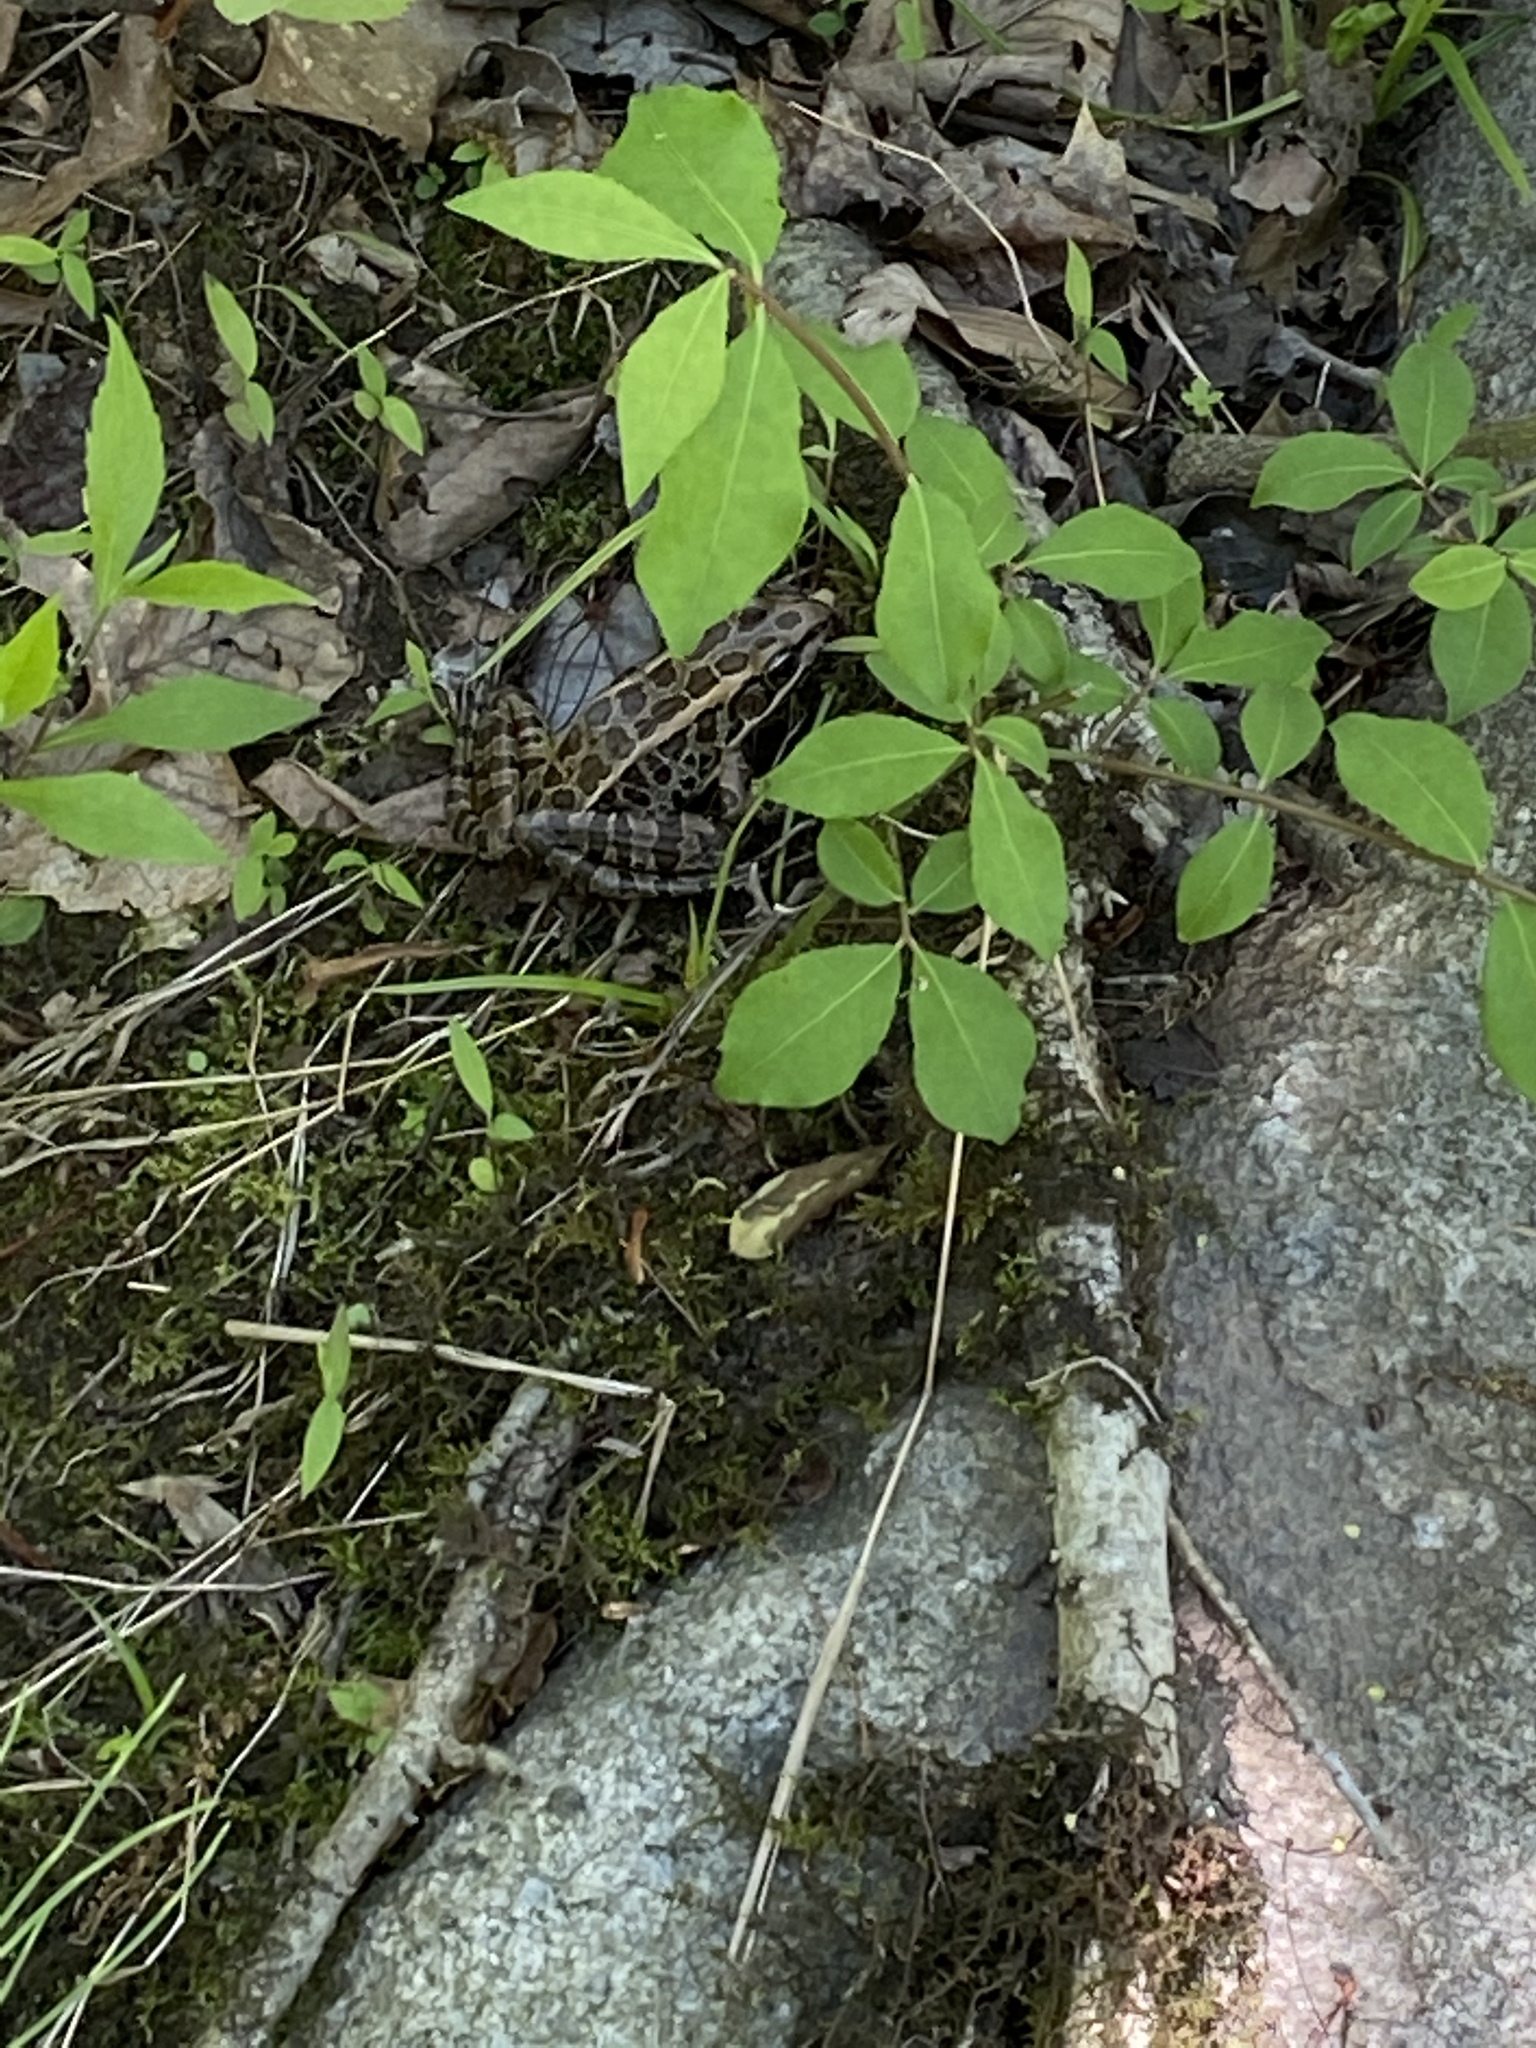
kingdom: Animalia
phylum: Chordata
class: Amphibia
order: Anura
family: Ranidae
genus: Lithobates
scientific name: Lithobates palustris
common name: Pickerel frog
